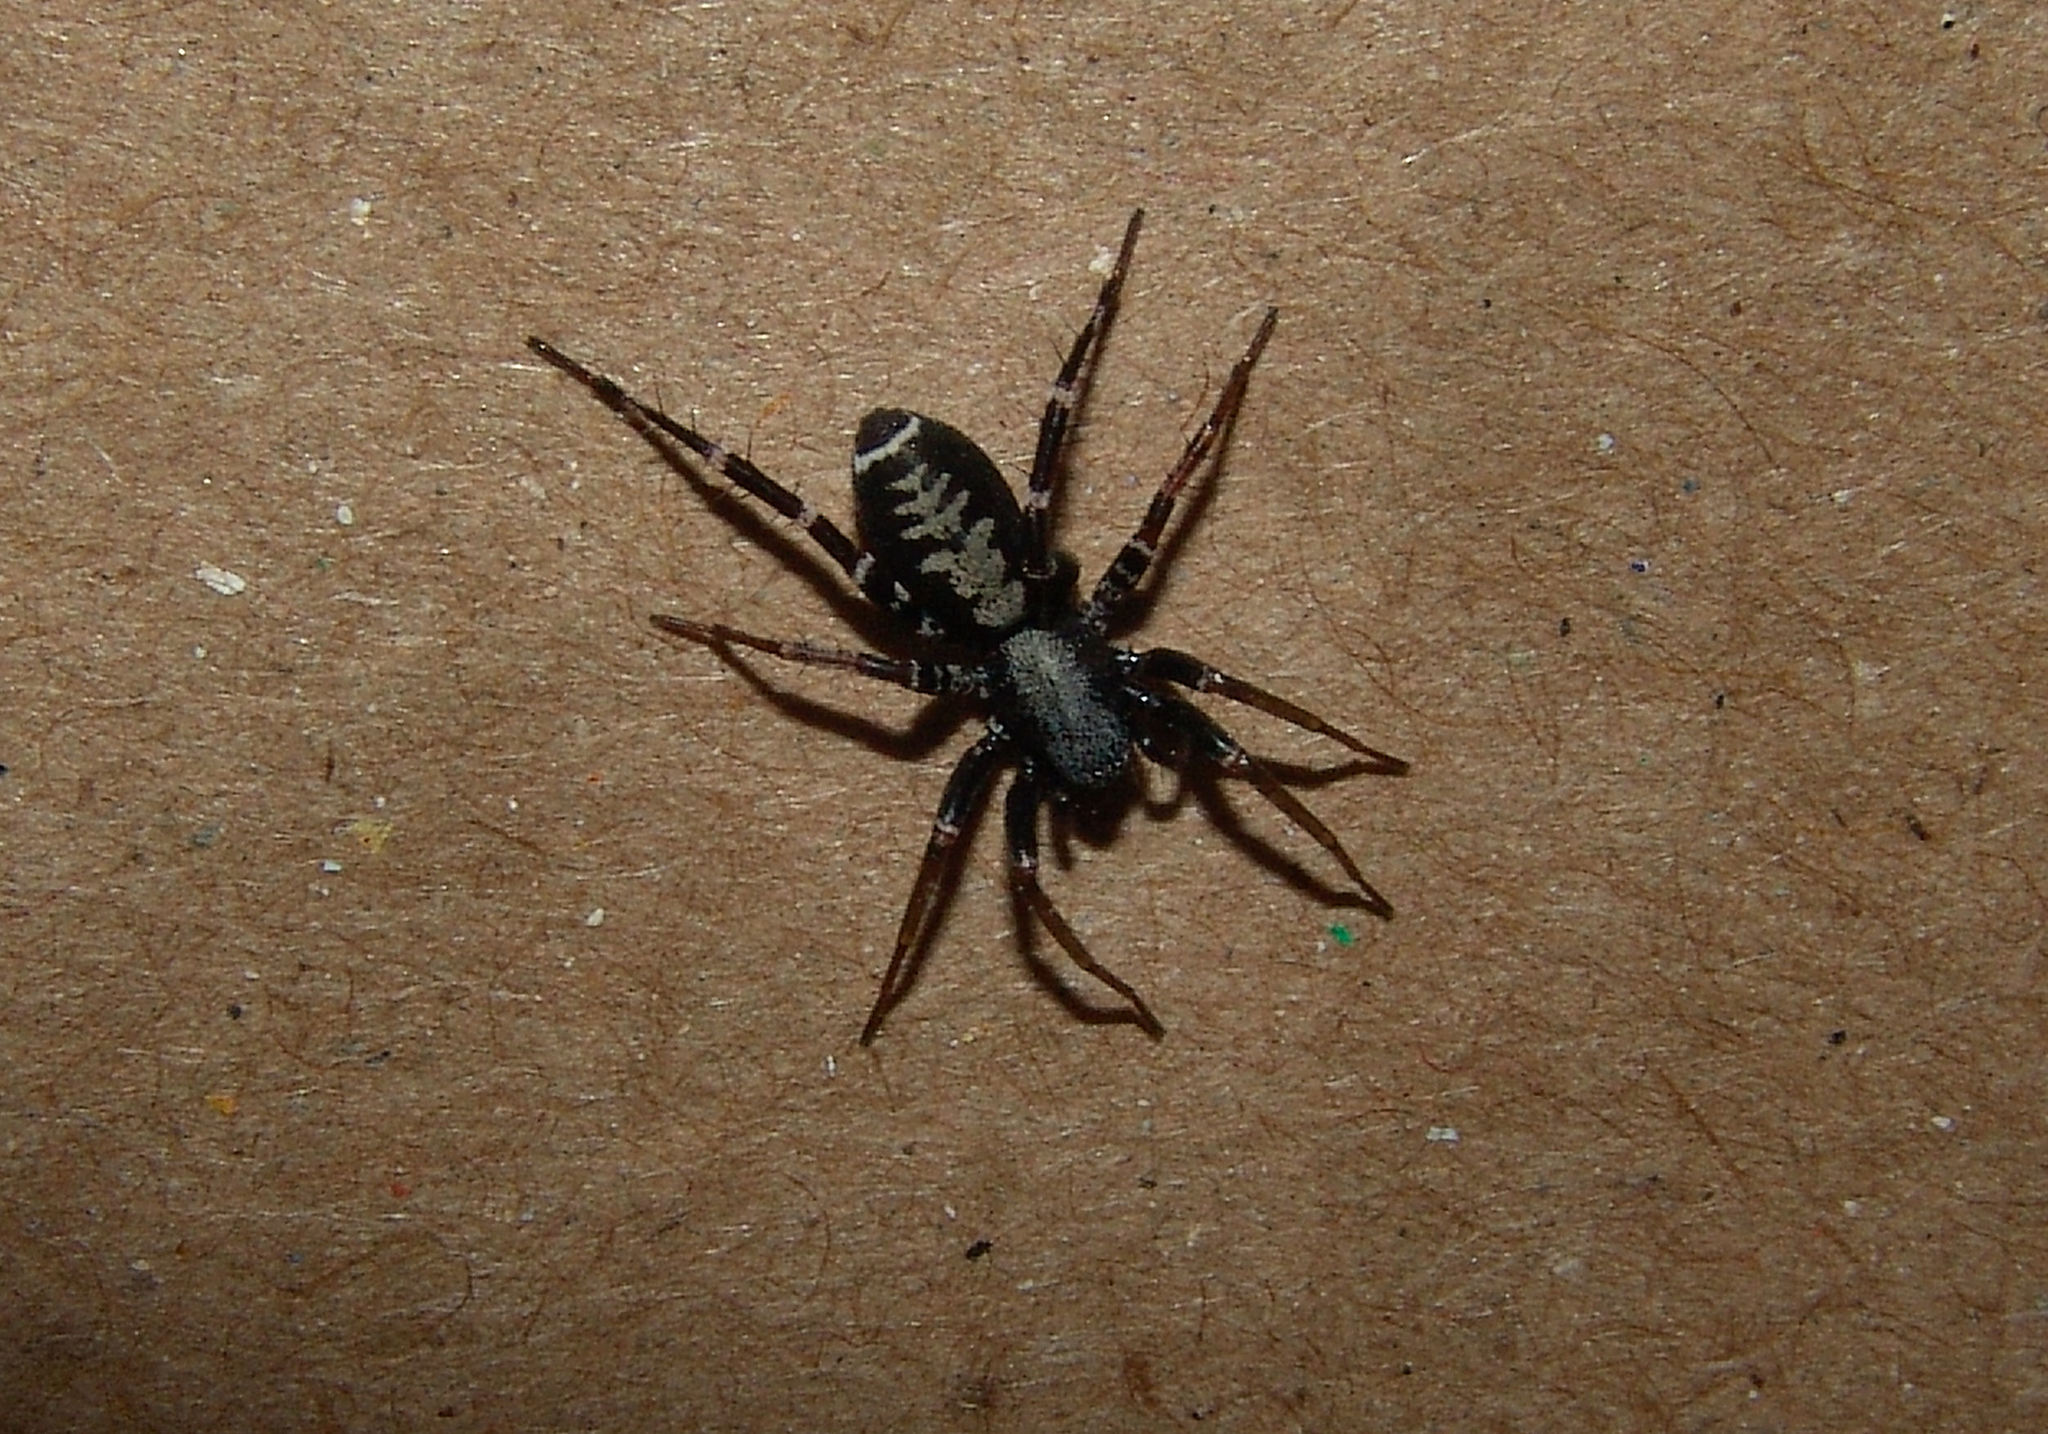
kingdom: Animalia
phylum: Arthropoda
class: Arachnida
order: Araneae
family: Corinnidae
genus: Castianeira
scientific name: Castianeira longipalpa
